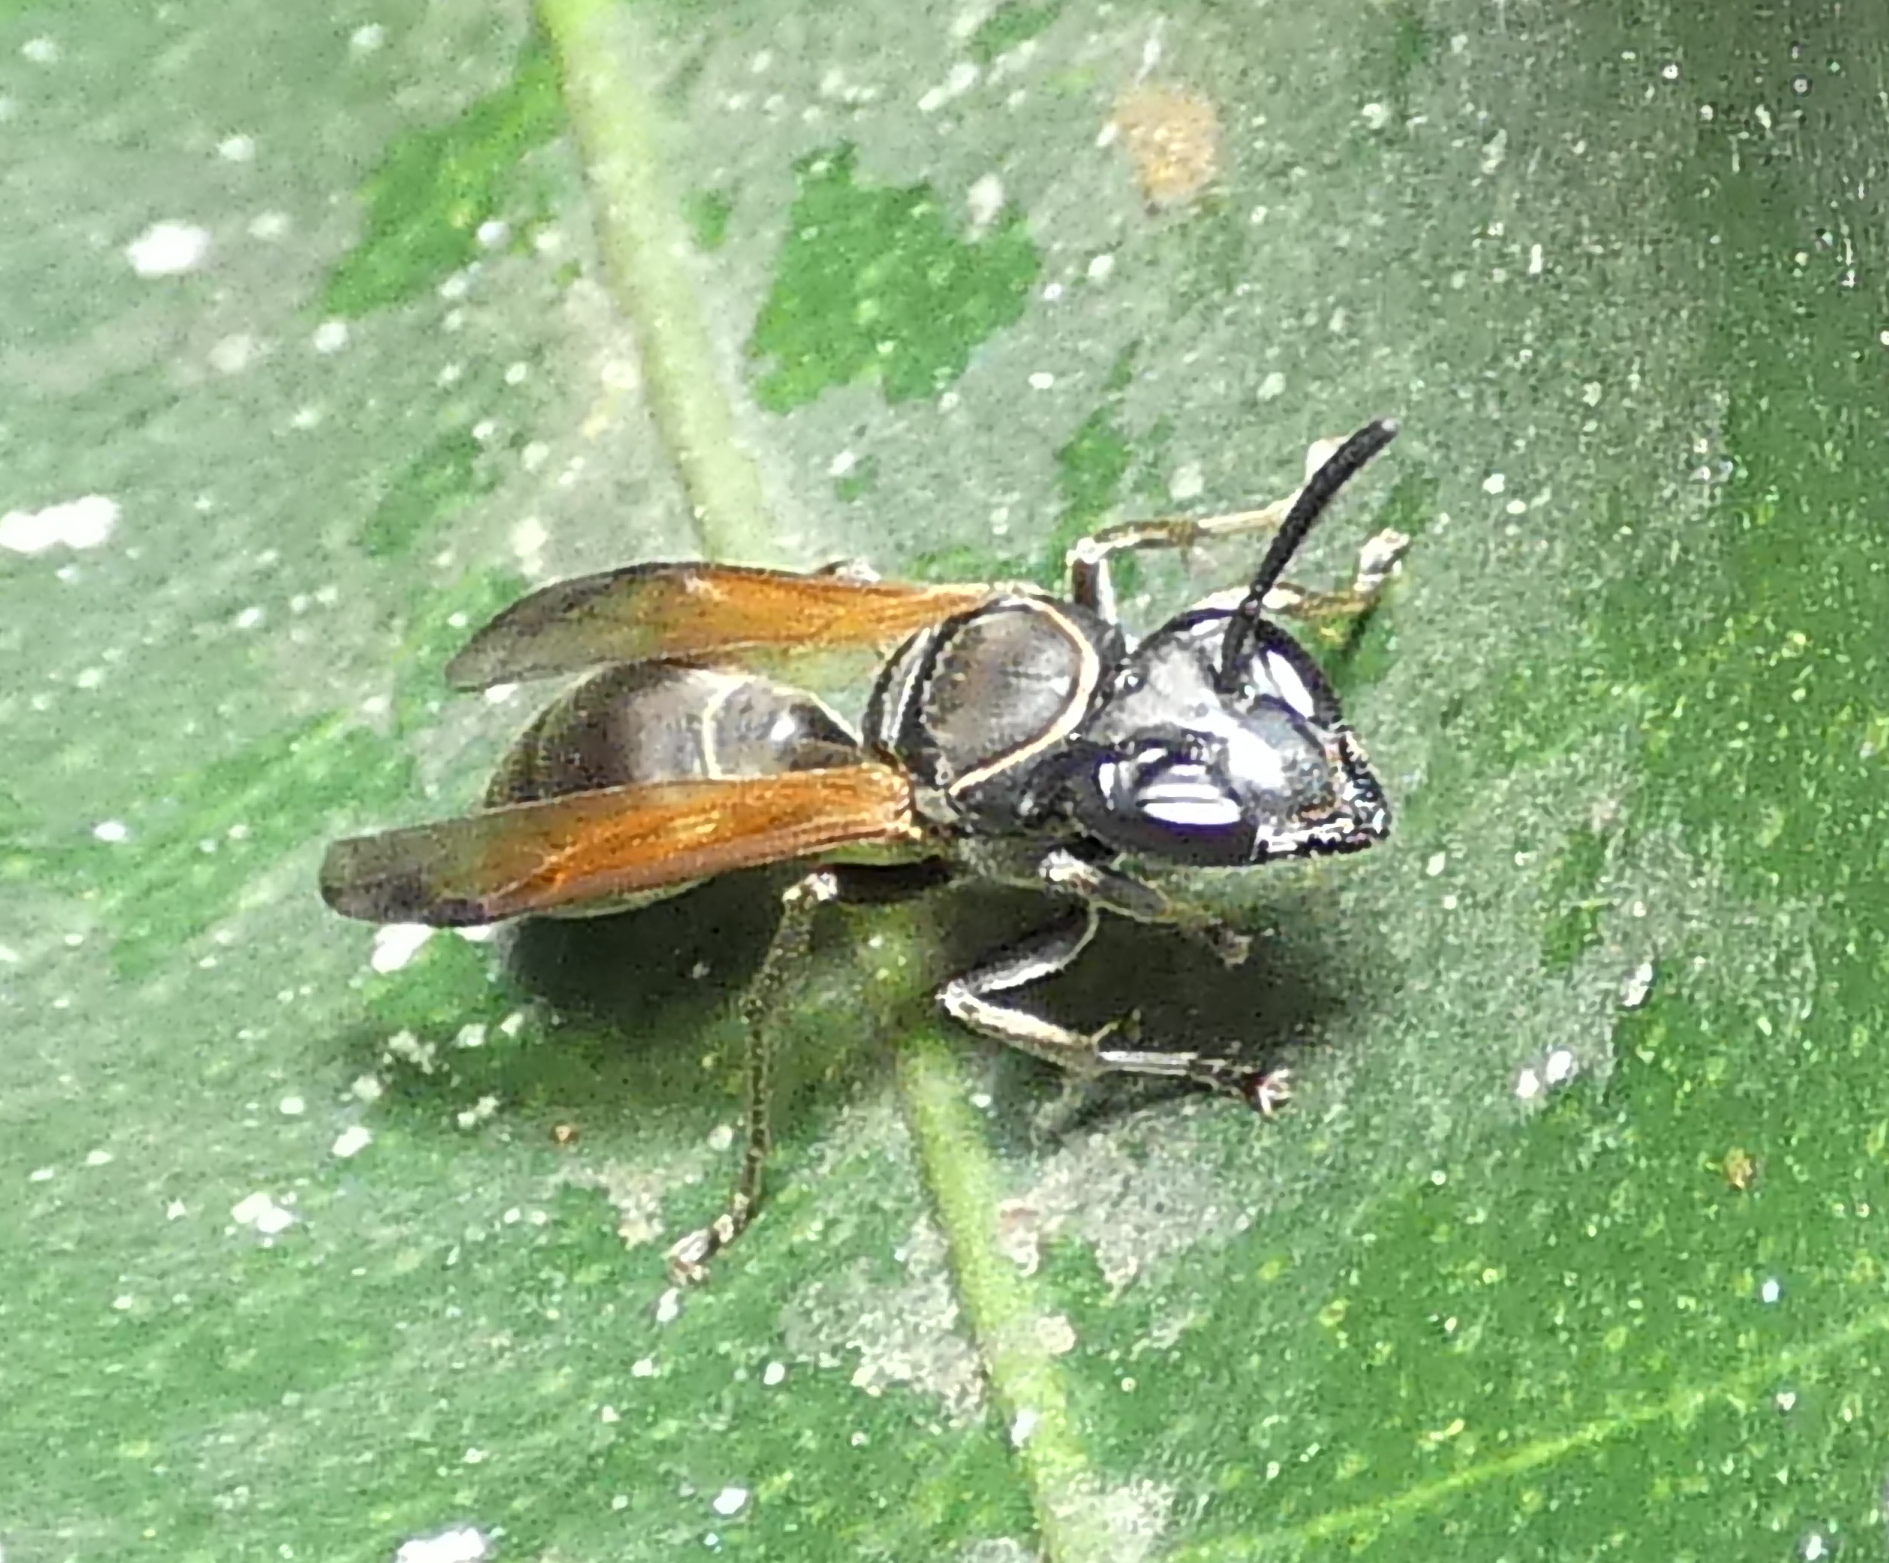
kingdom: Animalia
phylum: Arthropoda
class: Insecta
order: Hymenoptera
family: Eumenidae
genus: Polybia
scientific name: Polybia rejecta
